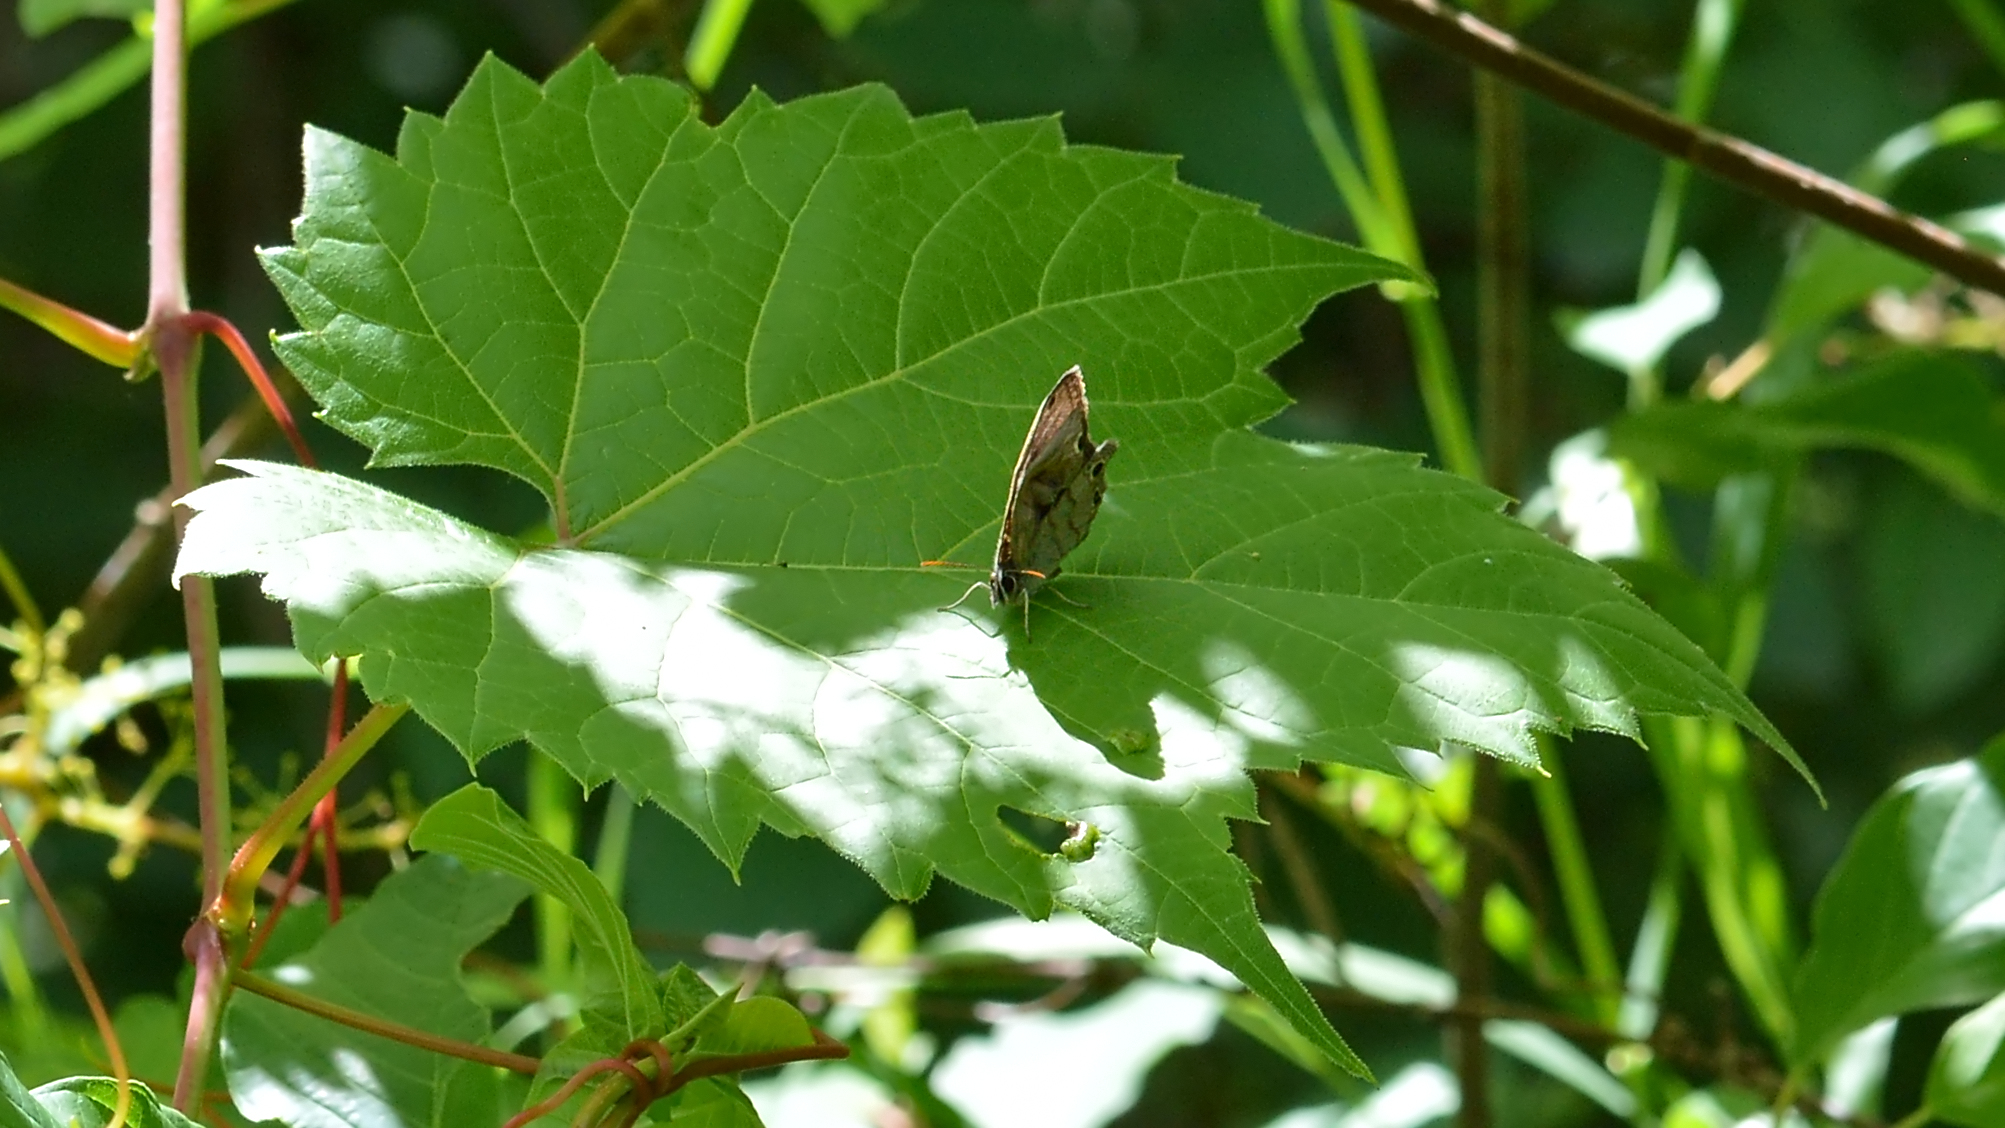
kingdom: Animalia
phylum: Arthropoda
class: Insecta
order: Lepidoptera
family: Nymphalidae
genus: Euptychia
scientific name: Euptychia cymela
